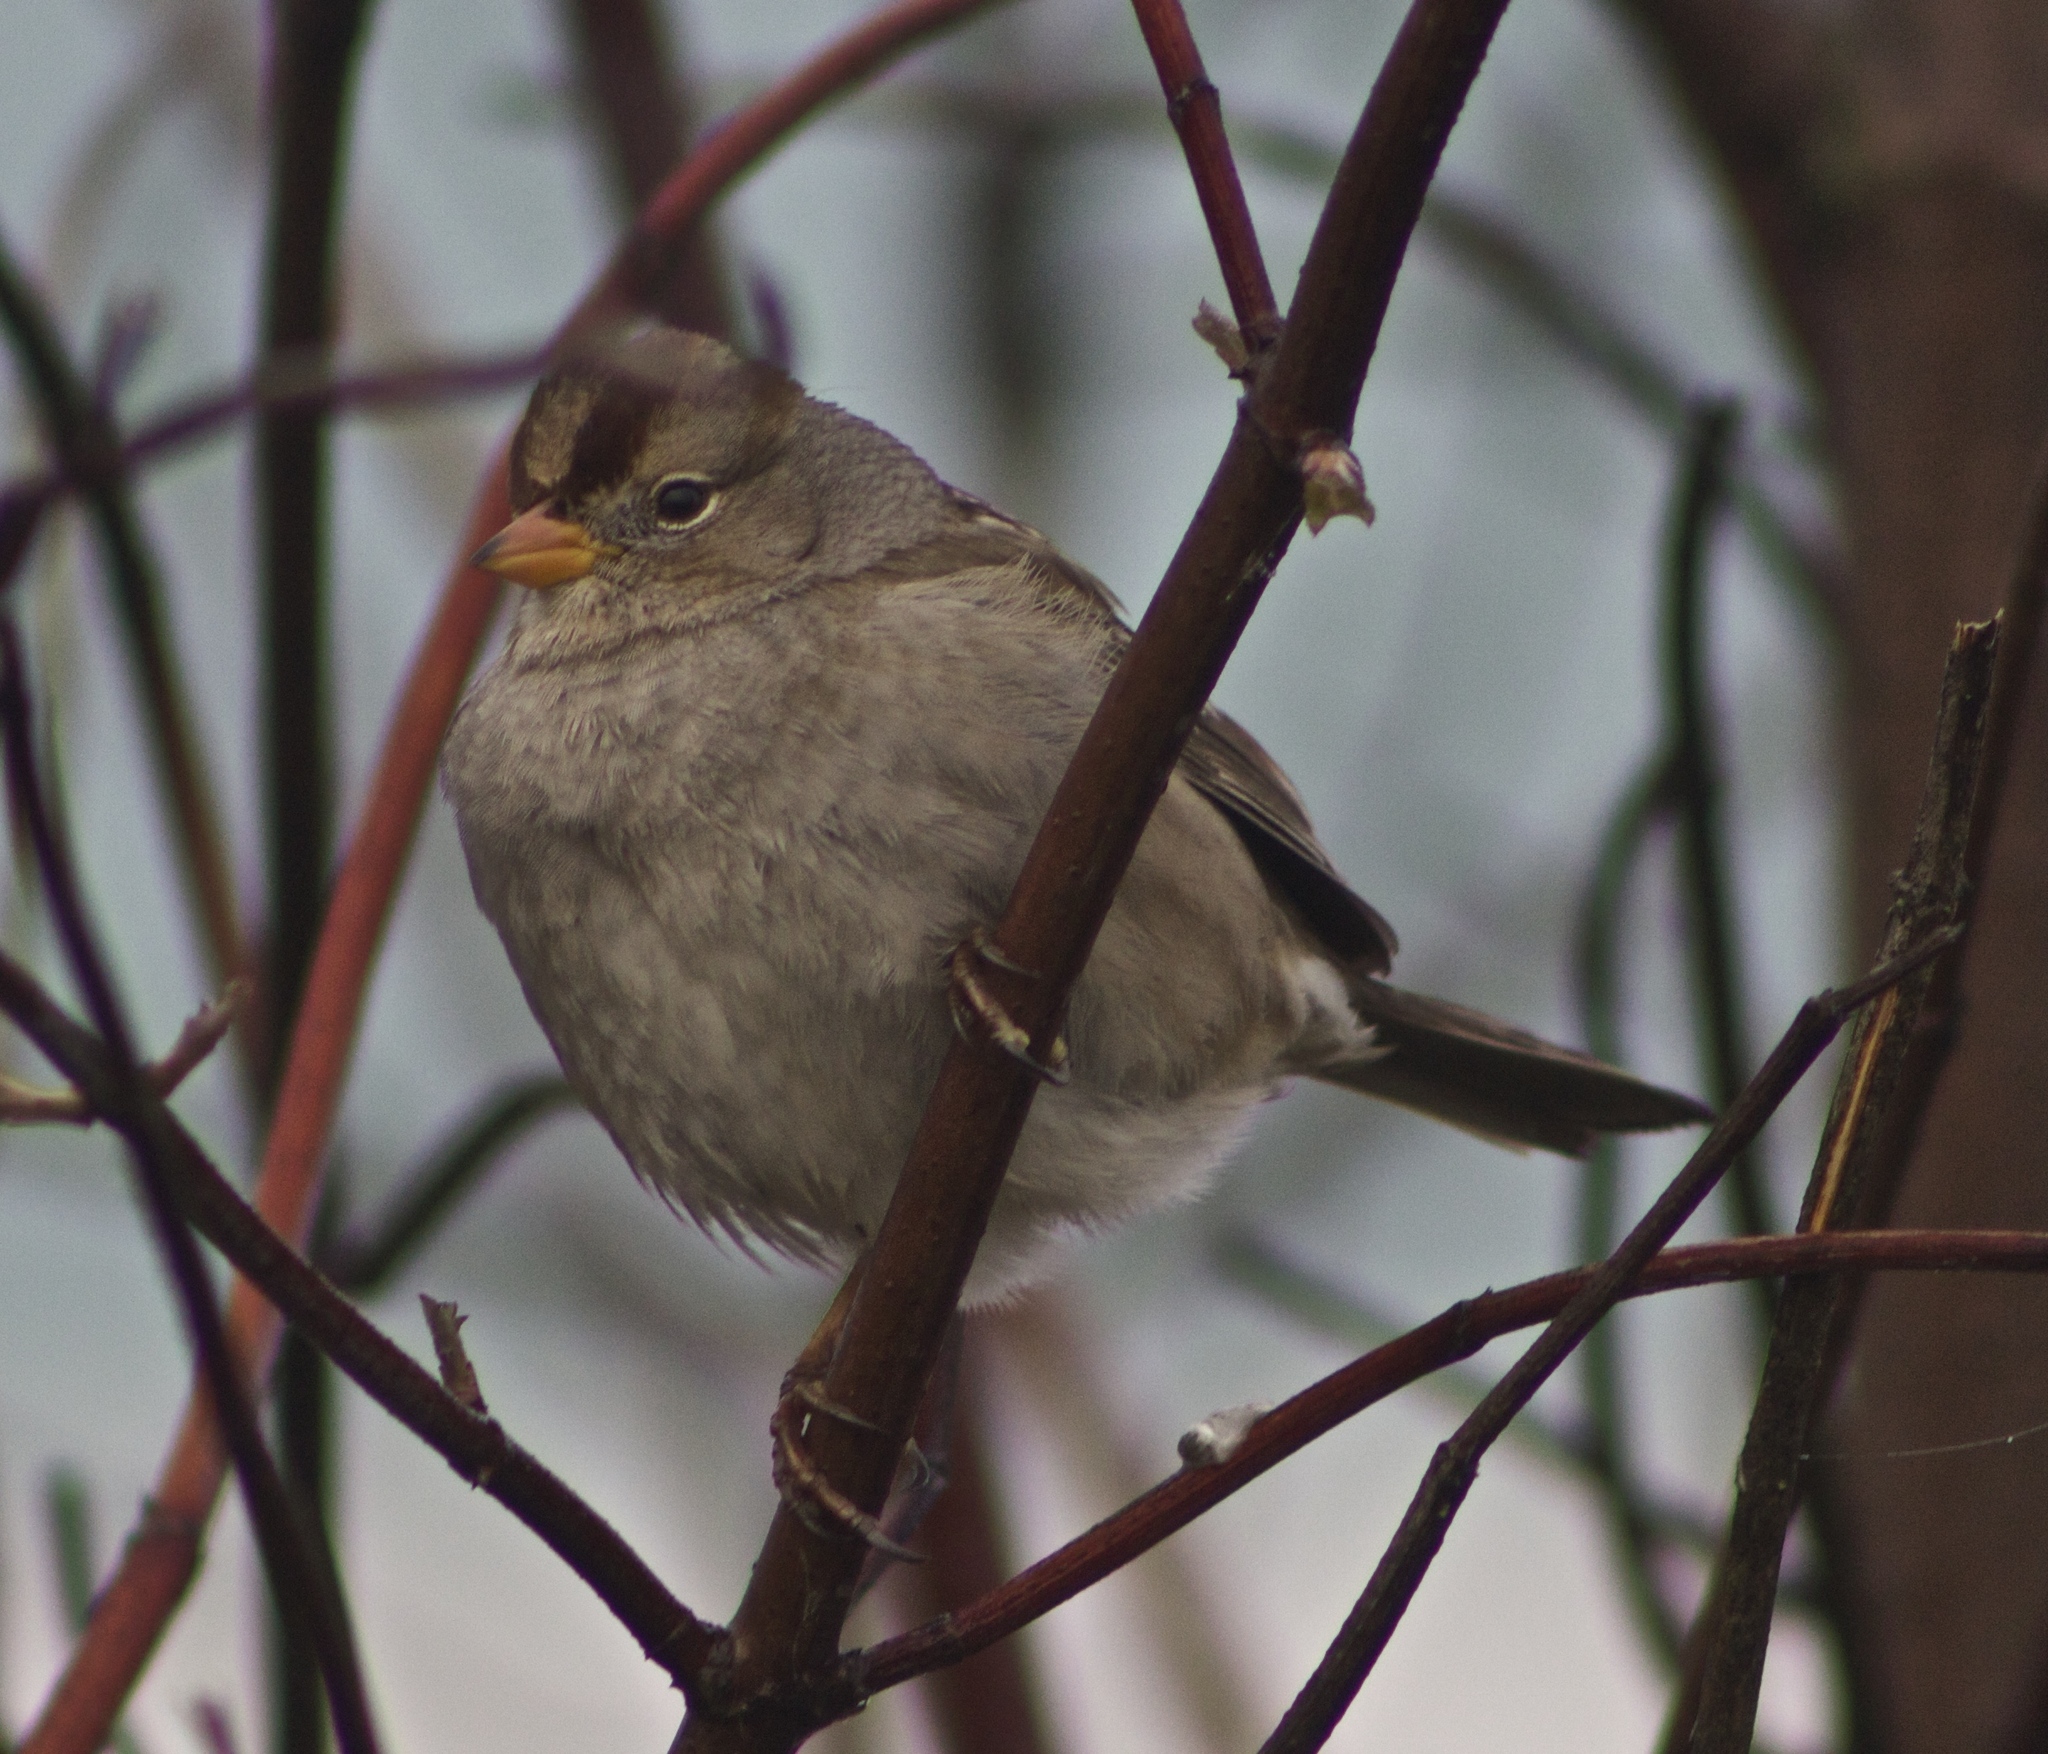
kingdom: Animalia
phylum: Chordata
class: Aves
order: Passeriformes
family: Passerellidae
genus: Zonotrichia
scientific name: Zonotrichia leucophrys
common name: White-crowned sparrow
